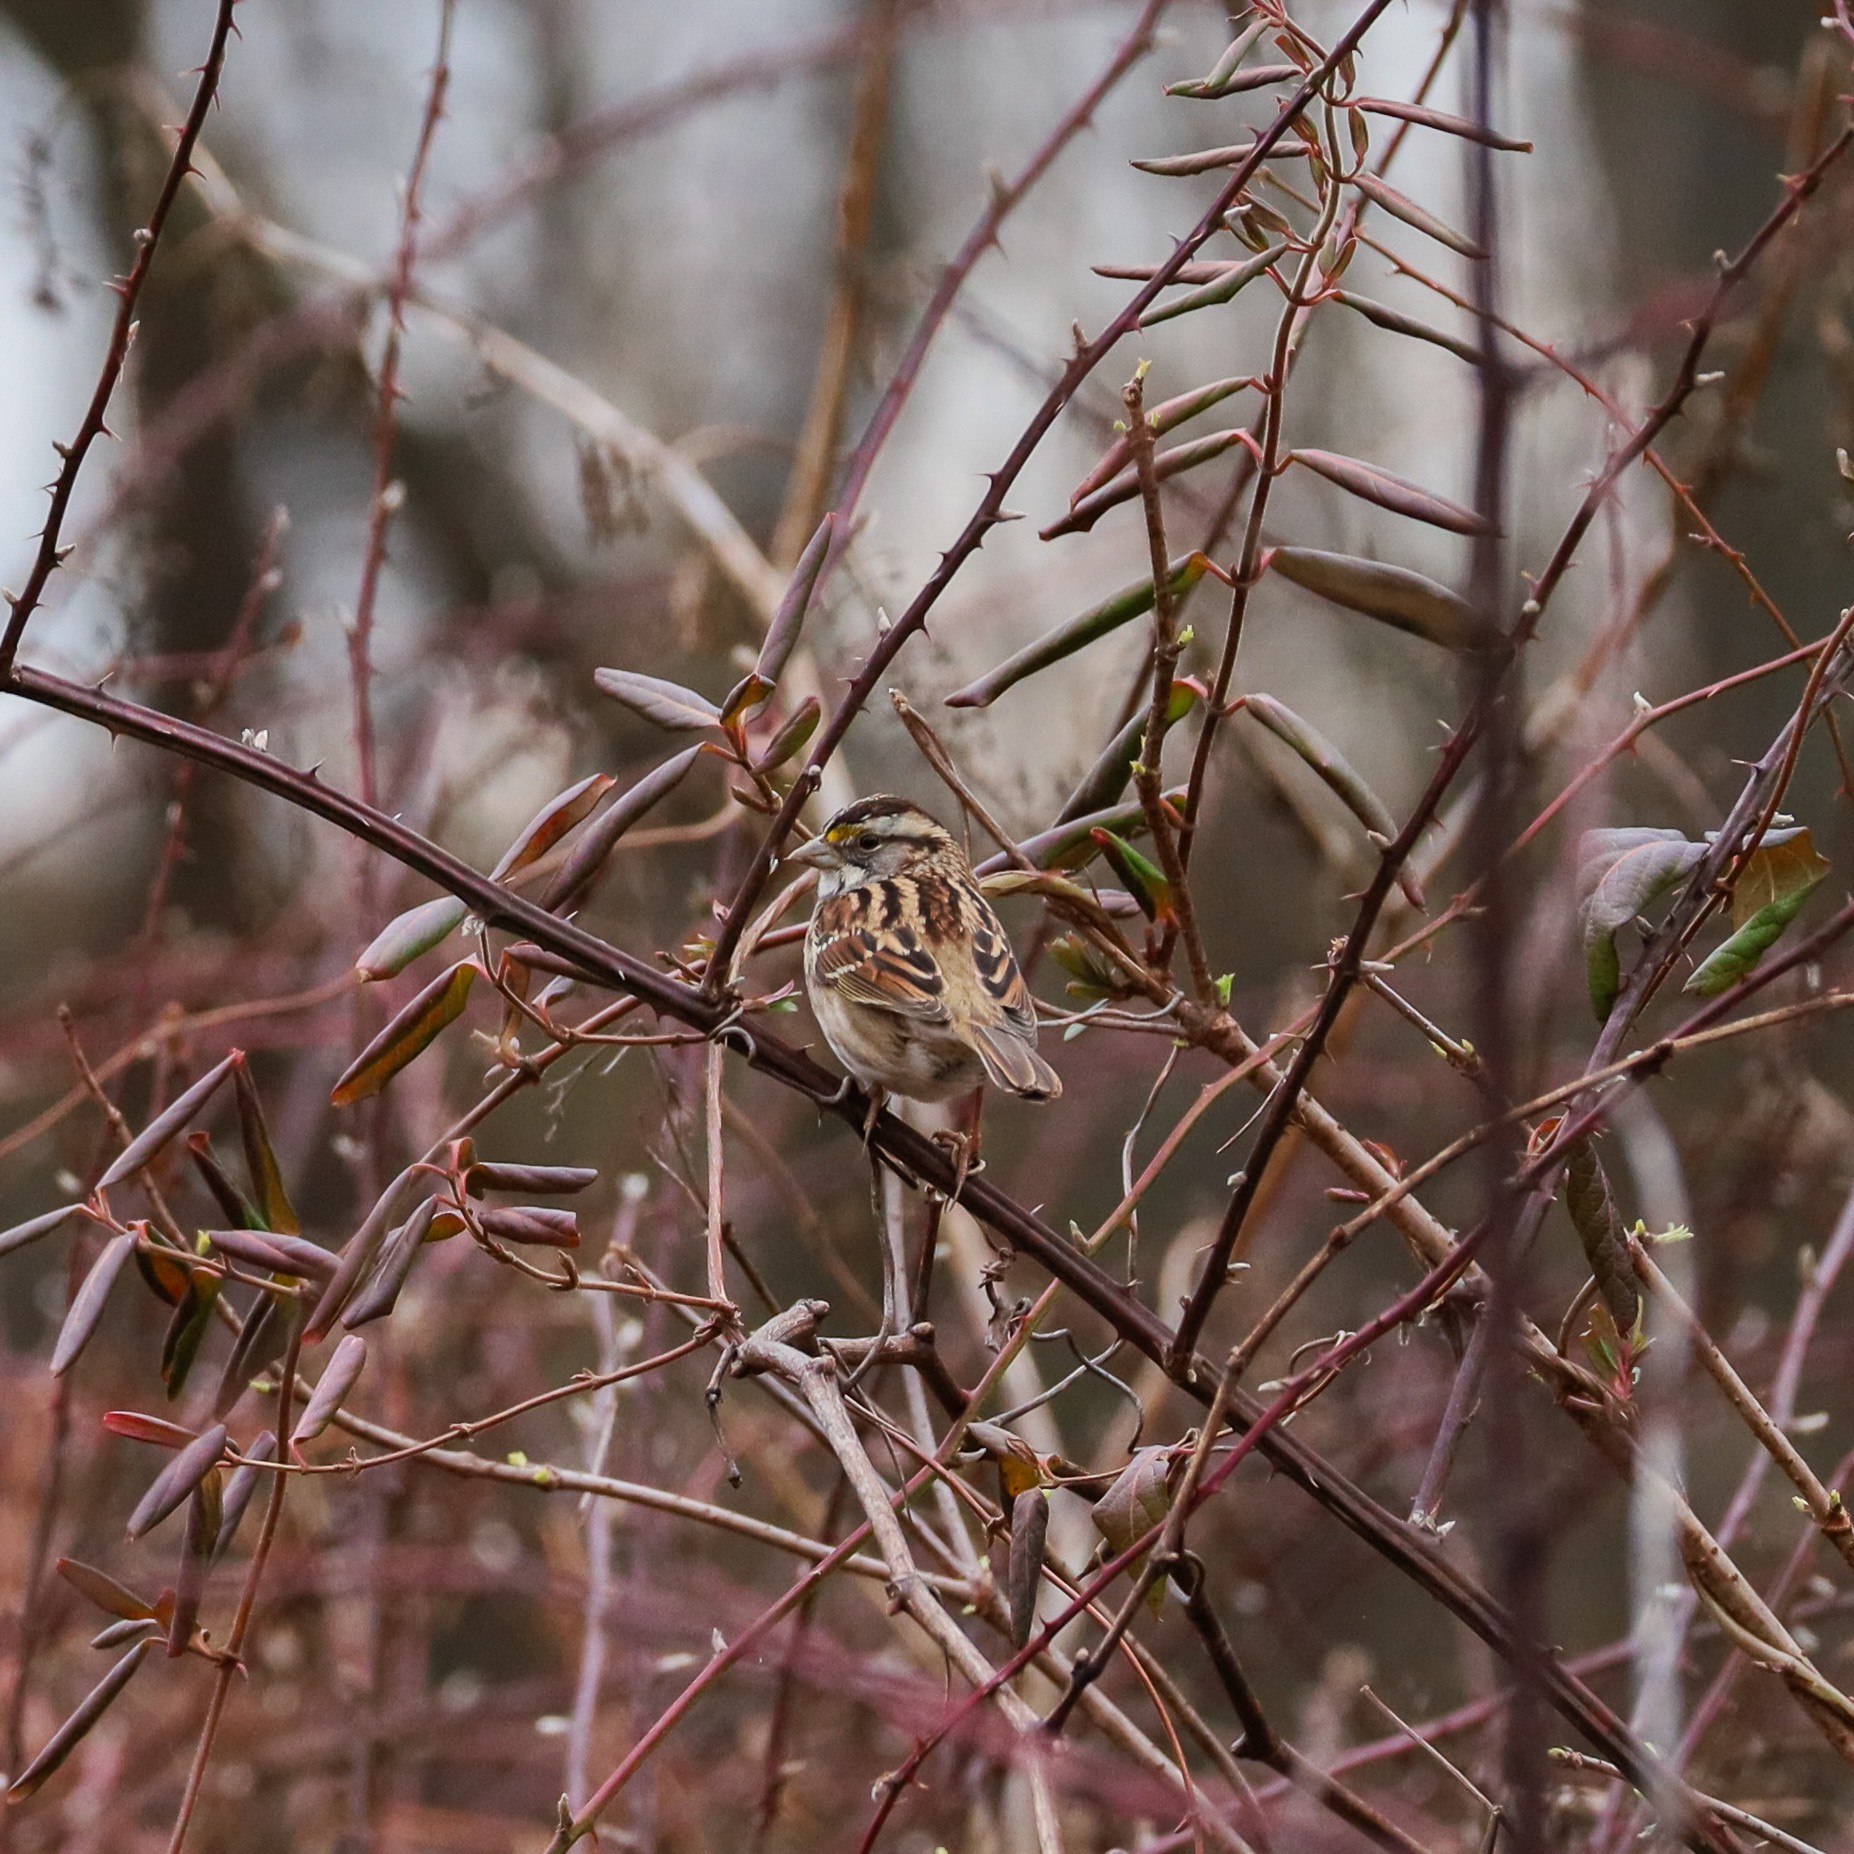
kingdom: Animalia
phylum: Chordata
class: Aves
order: Passeriformes
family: Passerellidae
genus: Zonotrichia
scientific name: Zonotrichia albicollis
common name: White-throated sparrow
